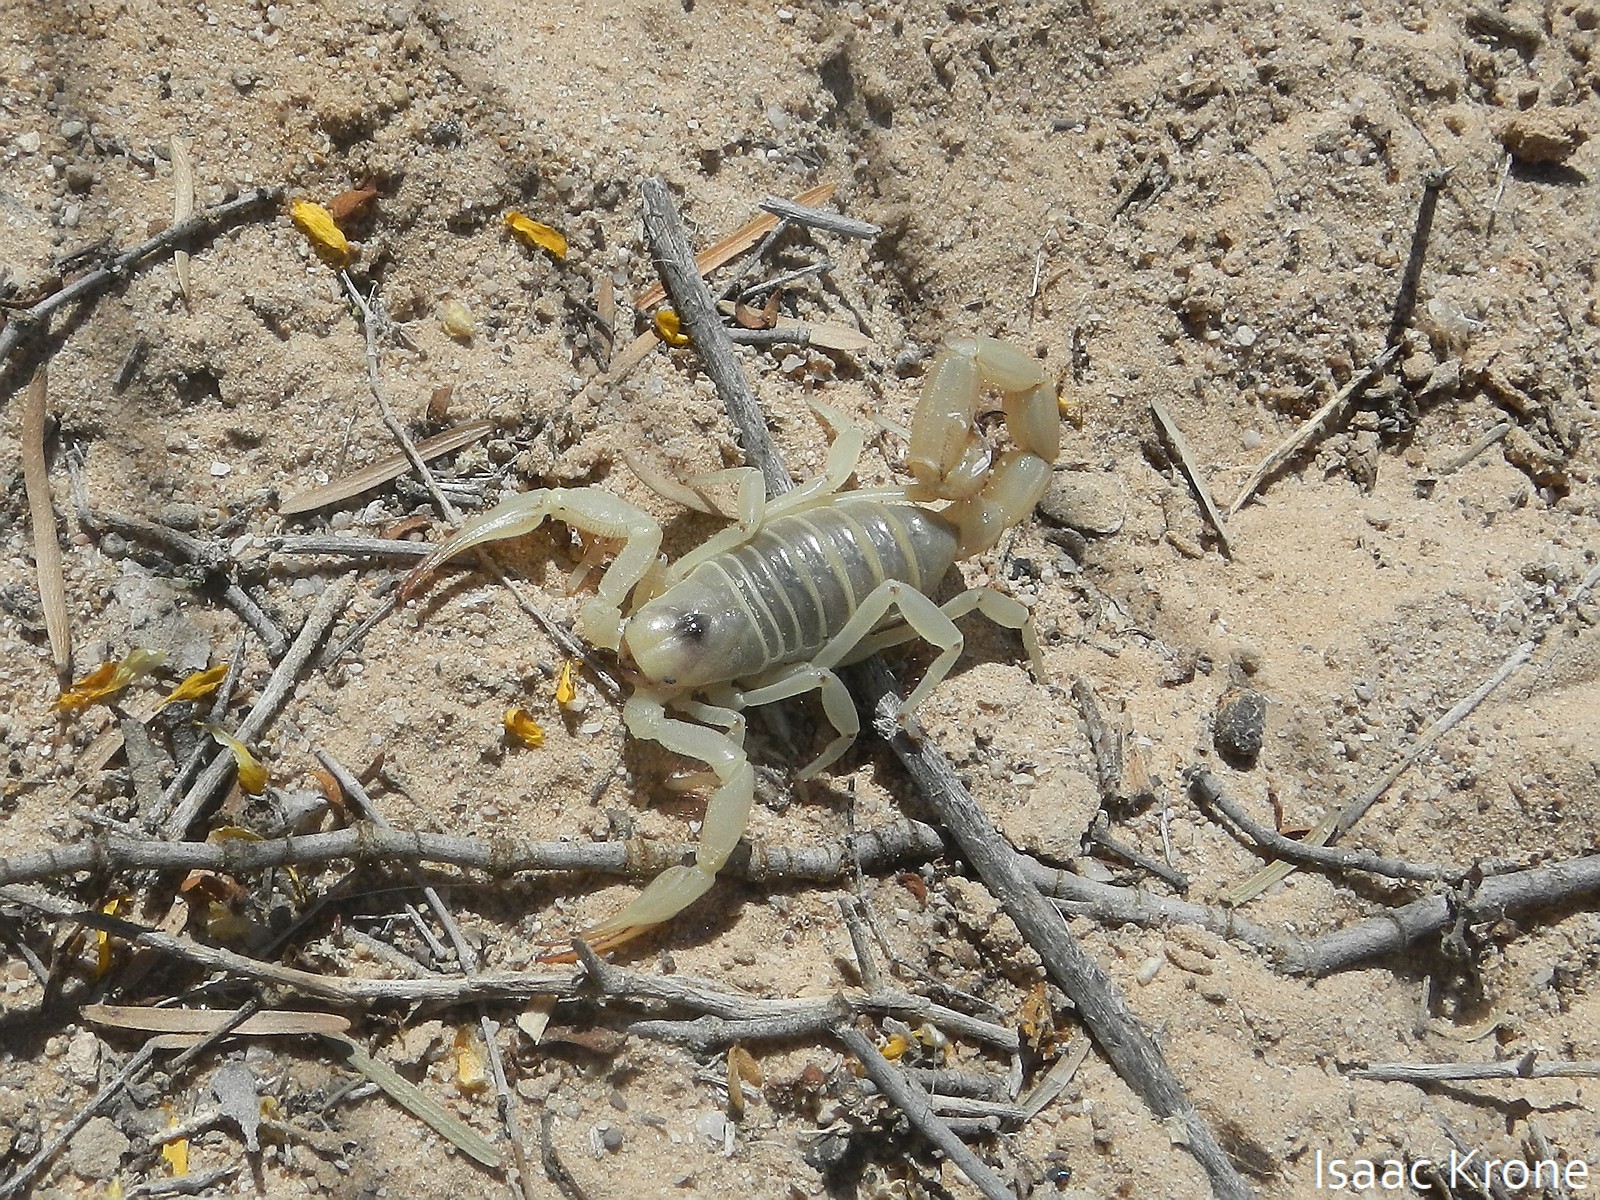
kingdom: Animalia
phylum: Arthropoda
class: Arachnida
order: Scorpiones
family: Hadruridae
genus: Hadrurus
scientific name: Hadrurus arizonensis
